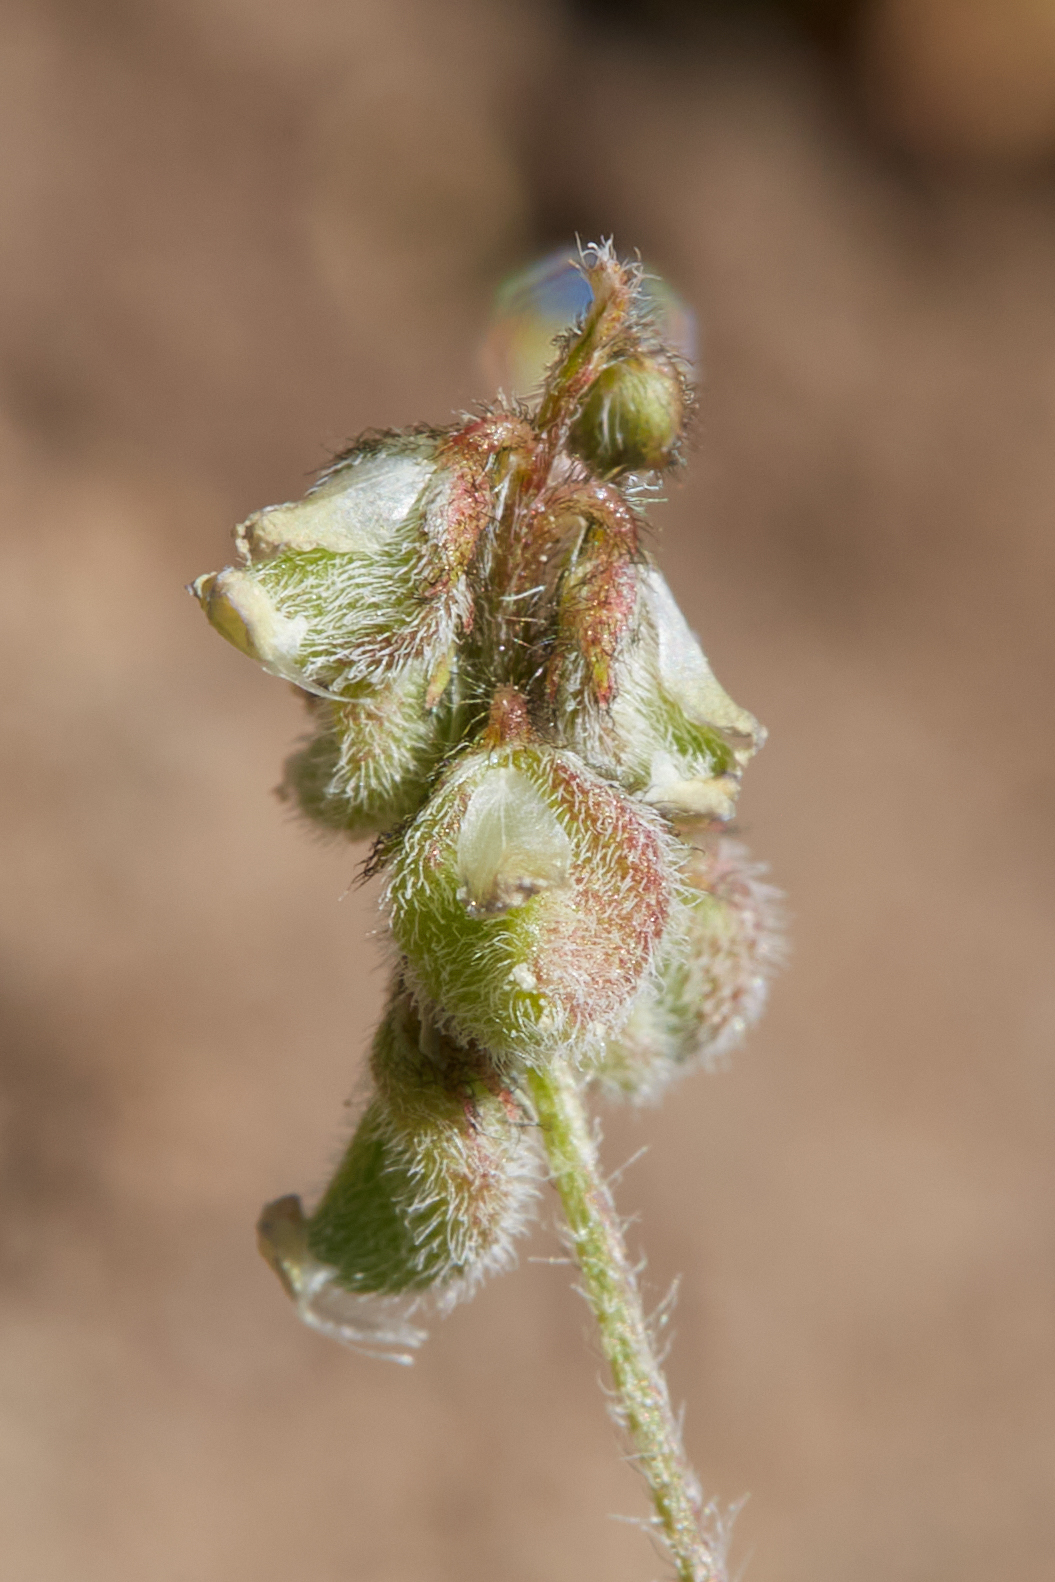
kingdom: Plantae
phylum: Tracheophyta
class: Magnoliopsida
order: Fabales
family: Fabaceae
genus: Astragalus
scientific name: Astragalus gambelianus
